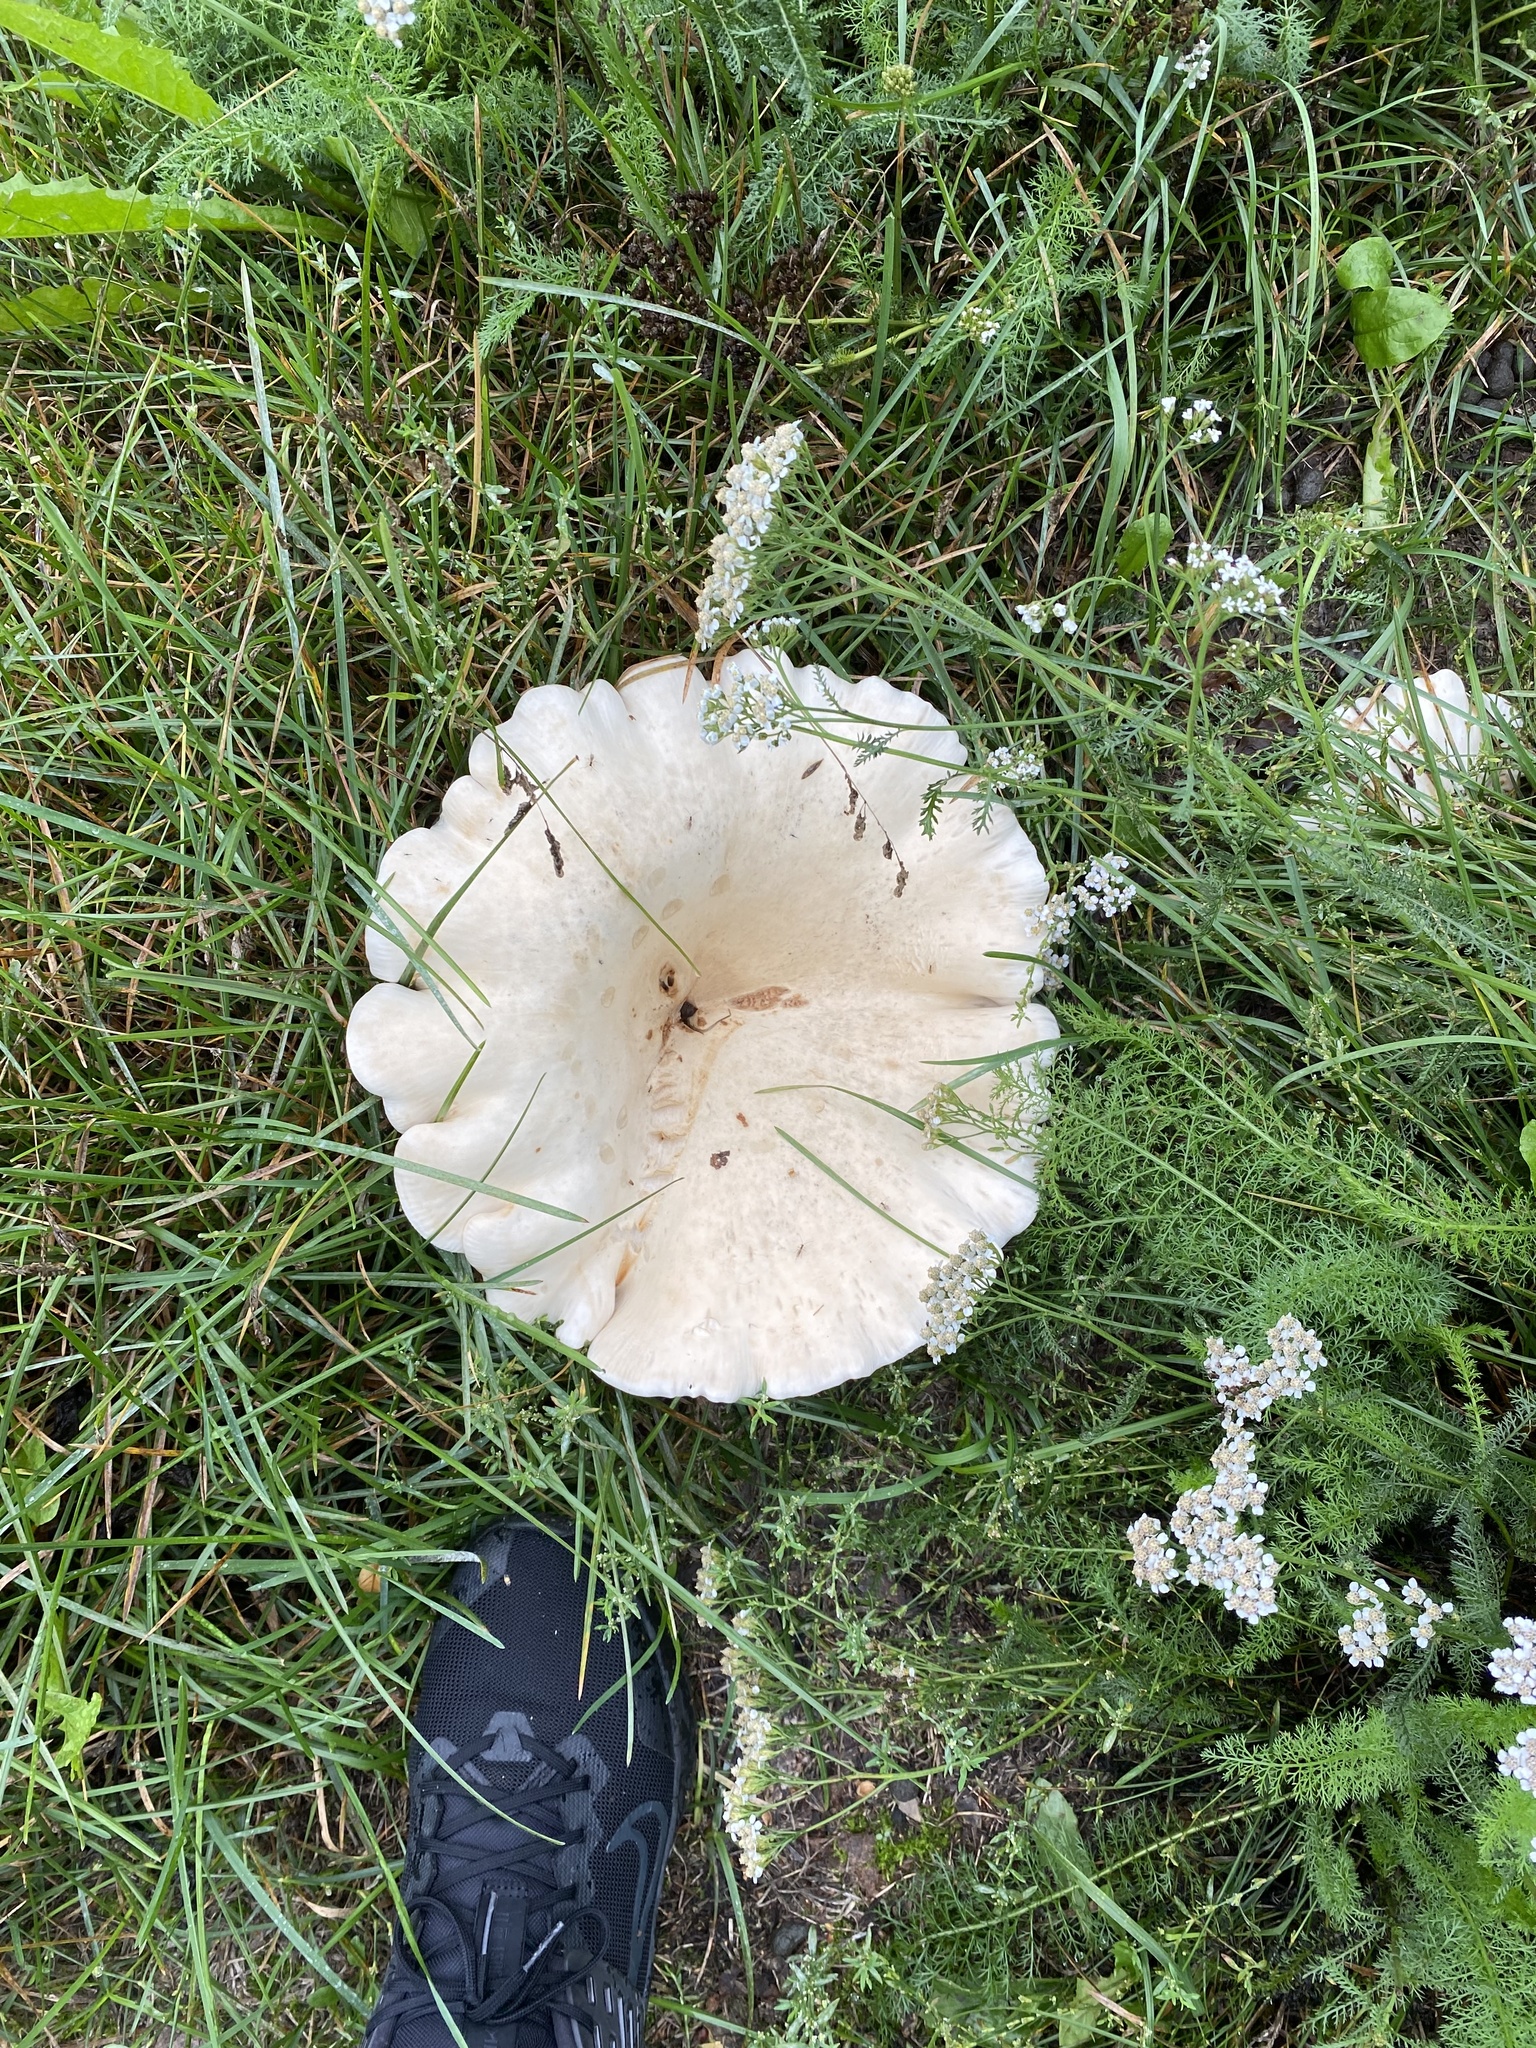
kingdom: Fungi
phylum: Basidiomycota
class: Agaricomycetes
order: Agaricales
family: Tricholomataceae
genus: Aspropaxillus
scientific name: Aspropaxillus giganteus
